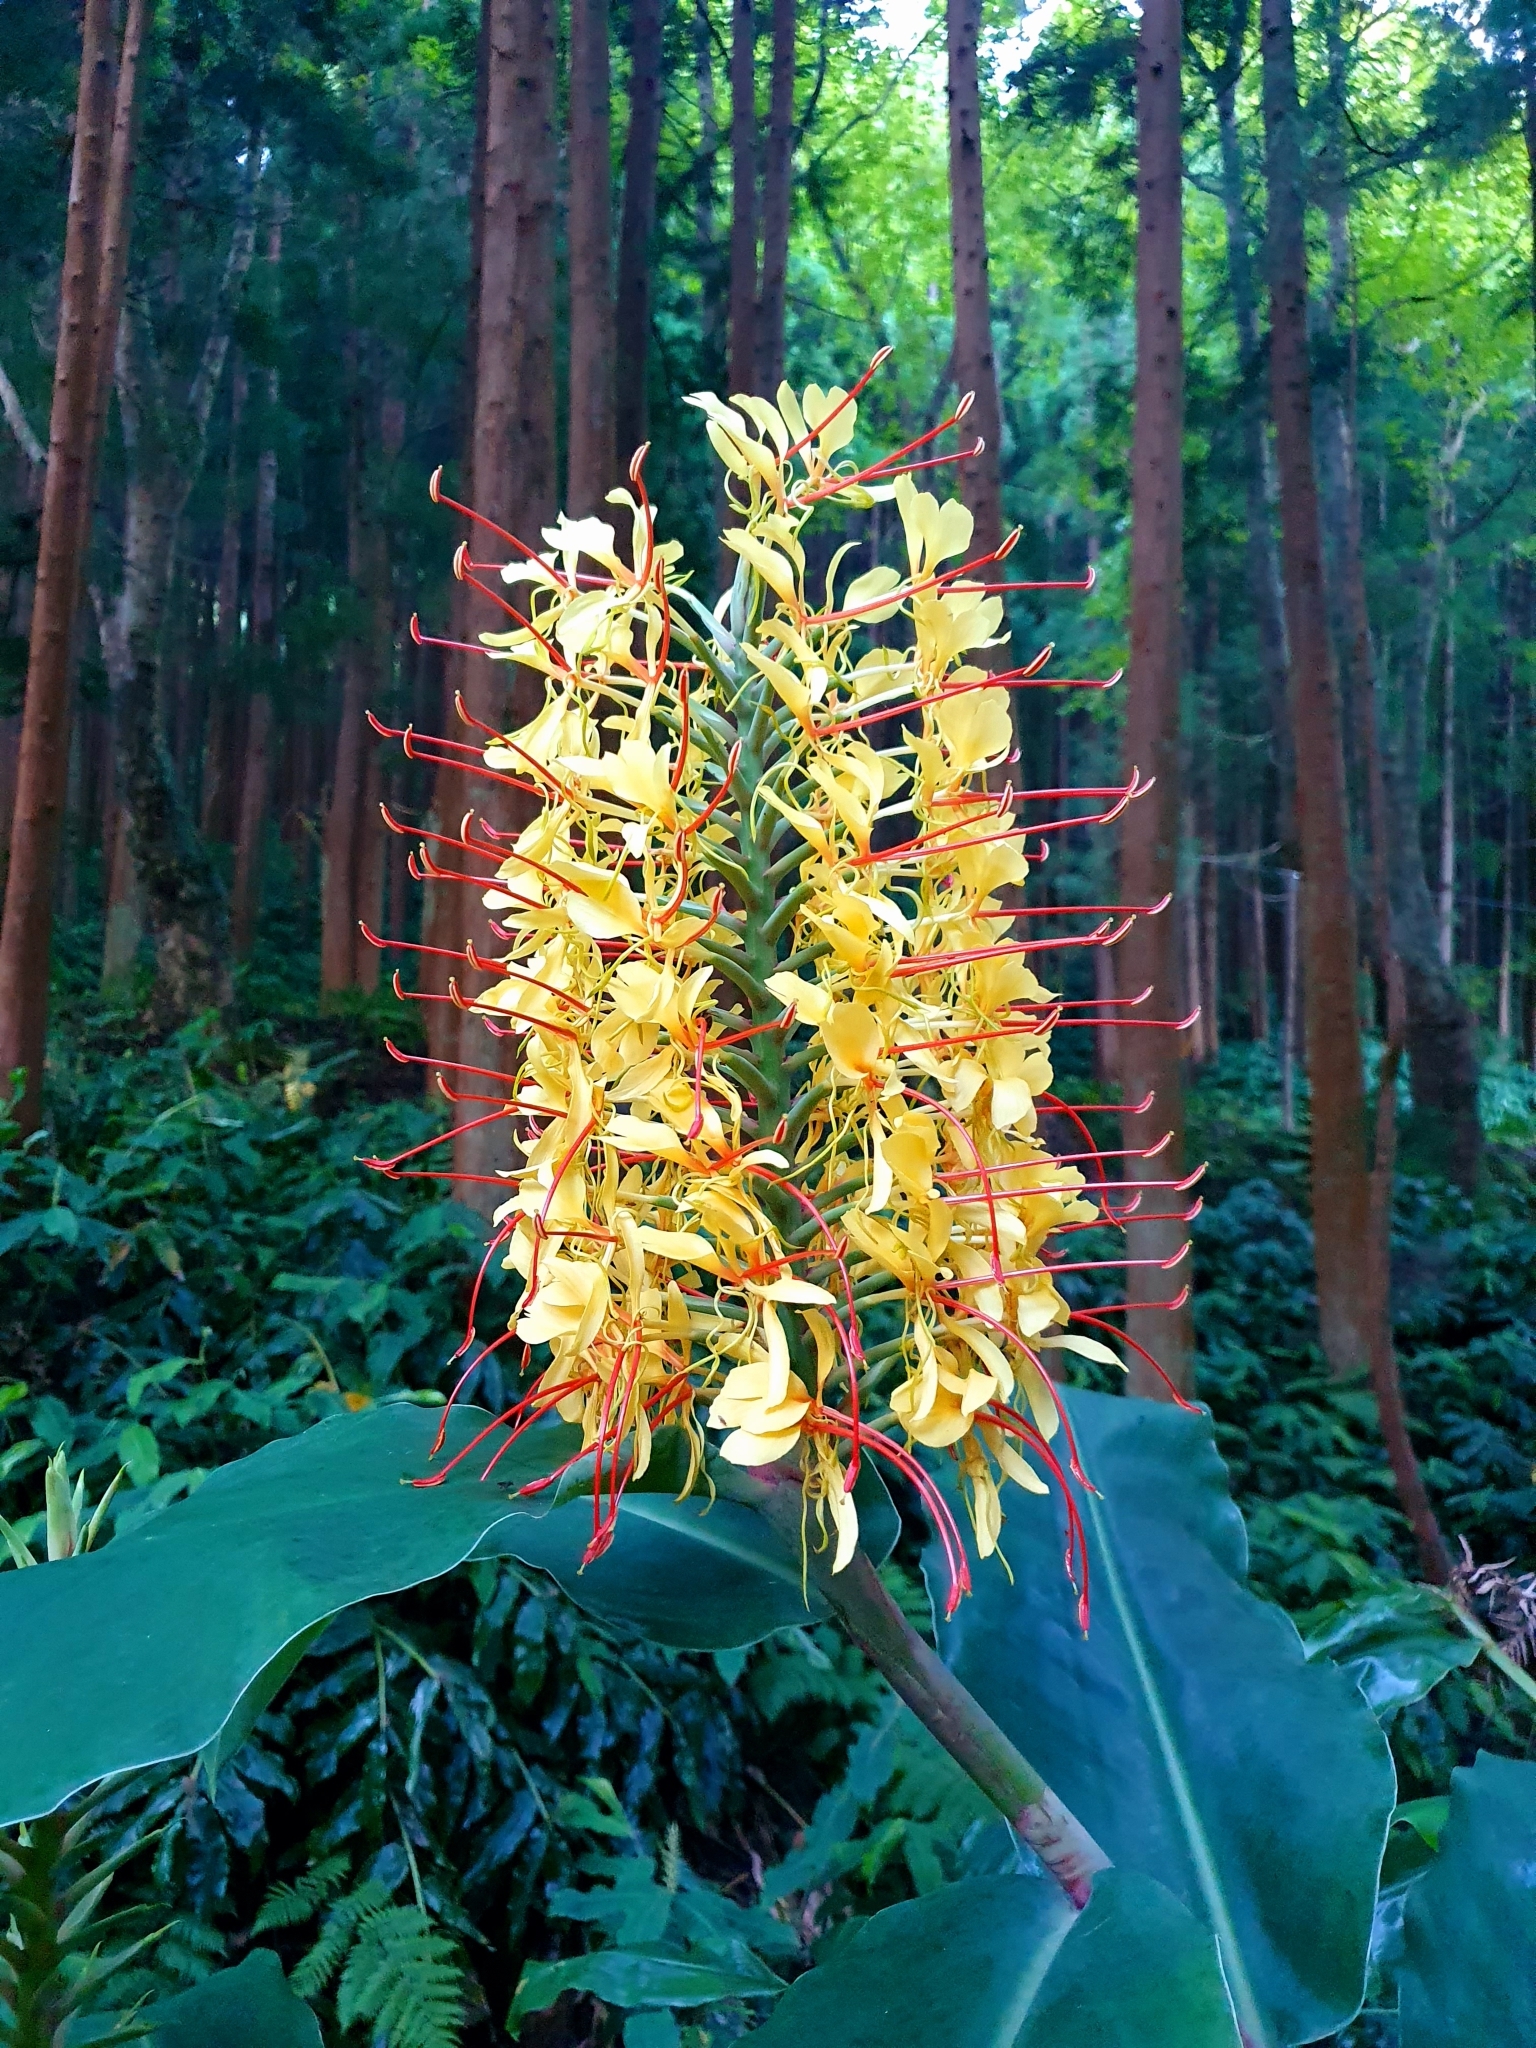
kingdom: Plantae
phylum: Tracheophyta
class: Liliopsida
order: Zingiberales
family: Zingiberaceae
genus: Hedychium
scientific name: Hedychium gardnerianum
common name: Himalayan ginger
